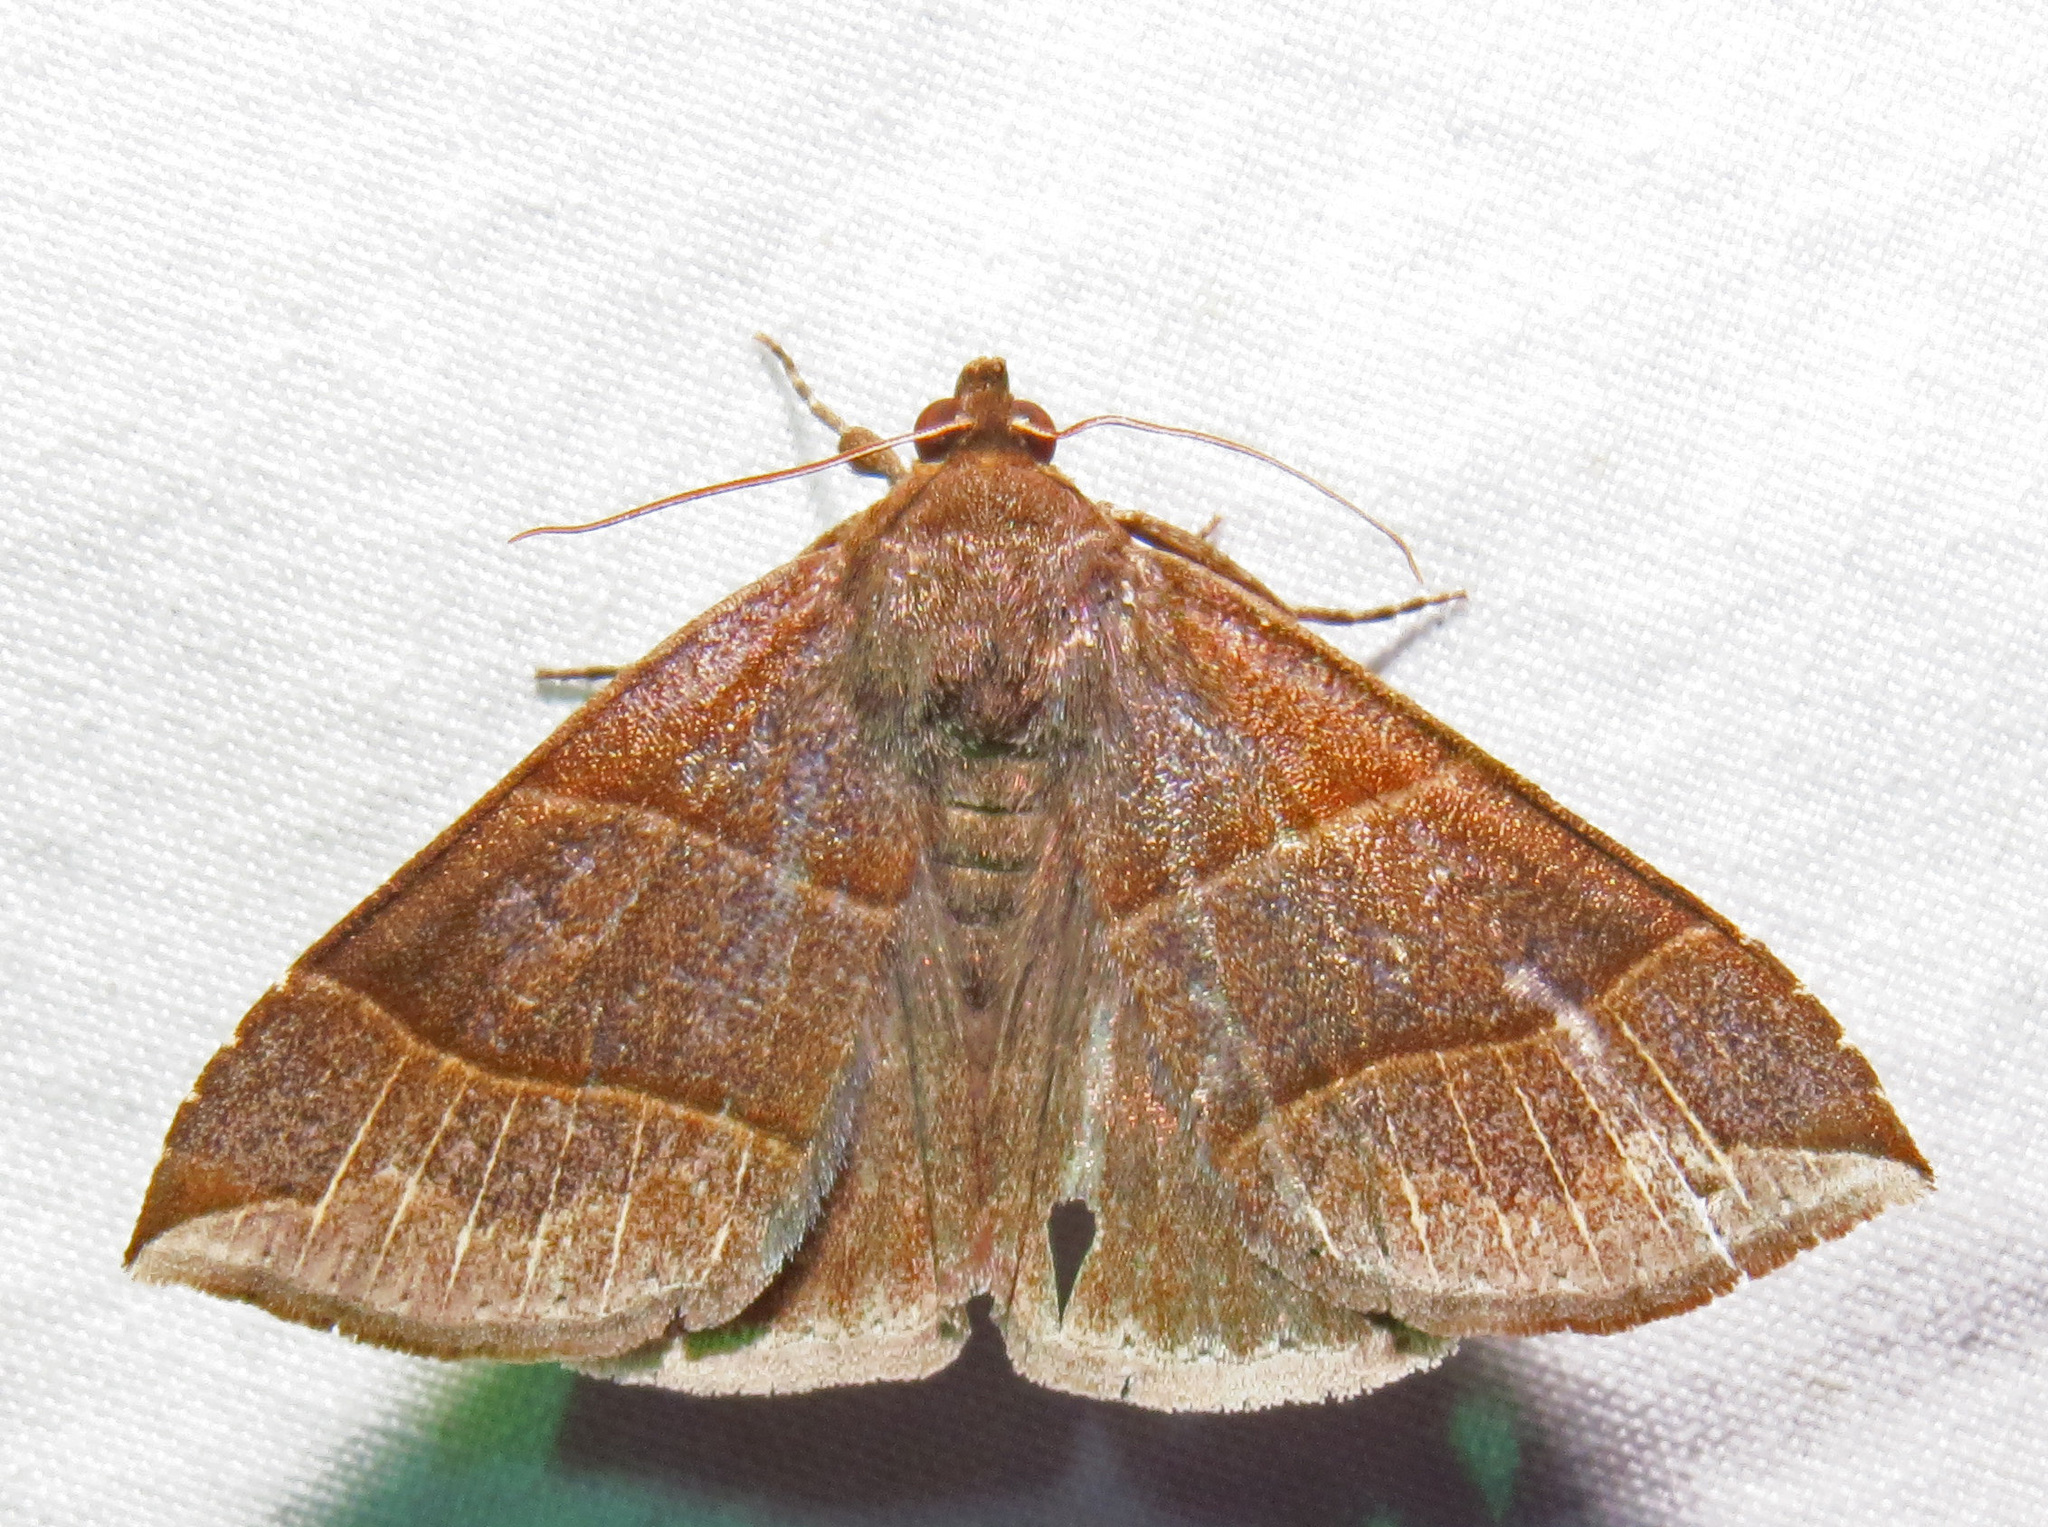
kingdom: Animalia
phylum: Arthropoda
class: Insecta
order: Lepidoptera
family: Erebidae
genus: Parallelia
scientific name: Parallelia bistriaris
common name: Maple looper moth
